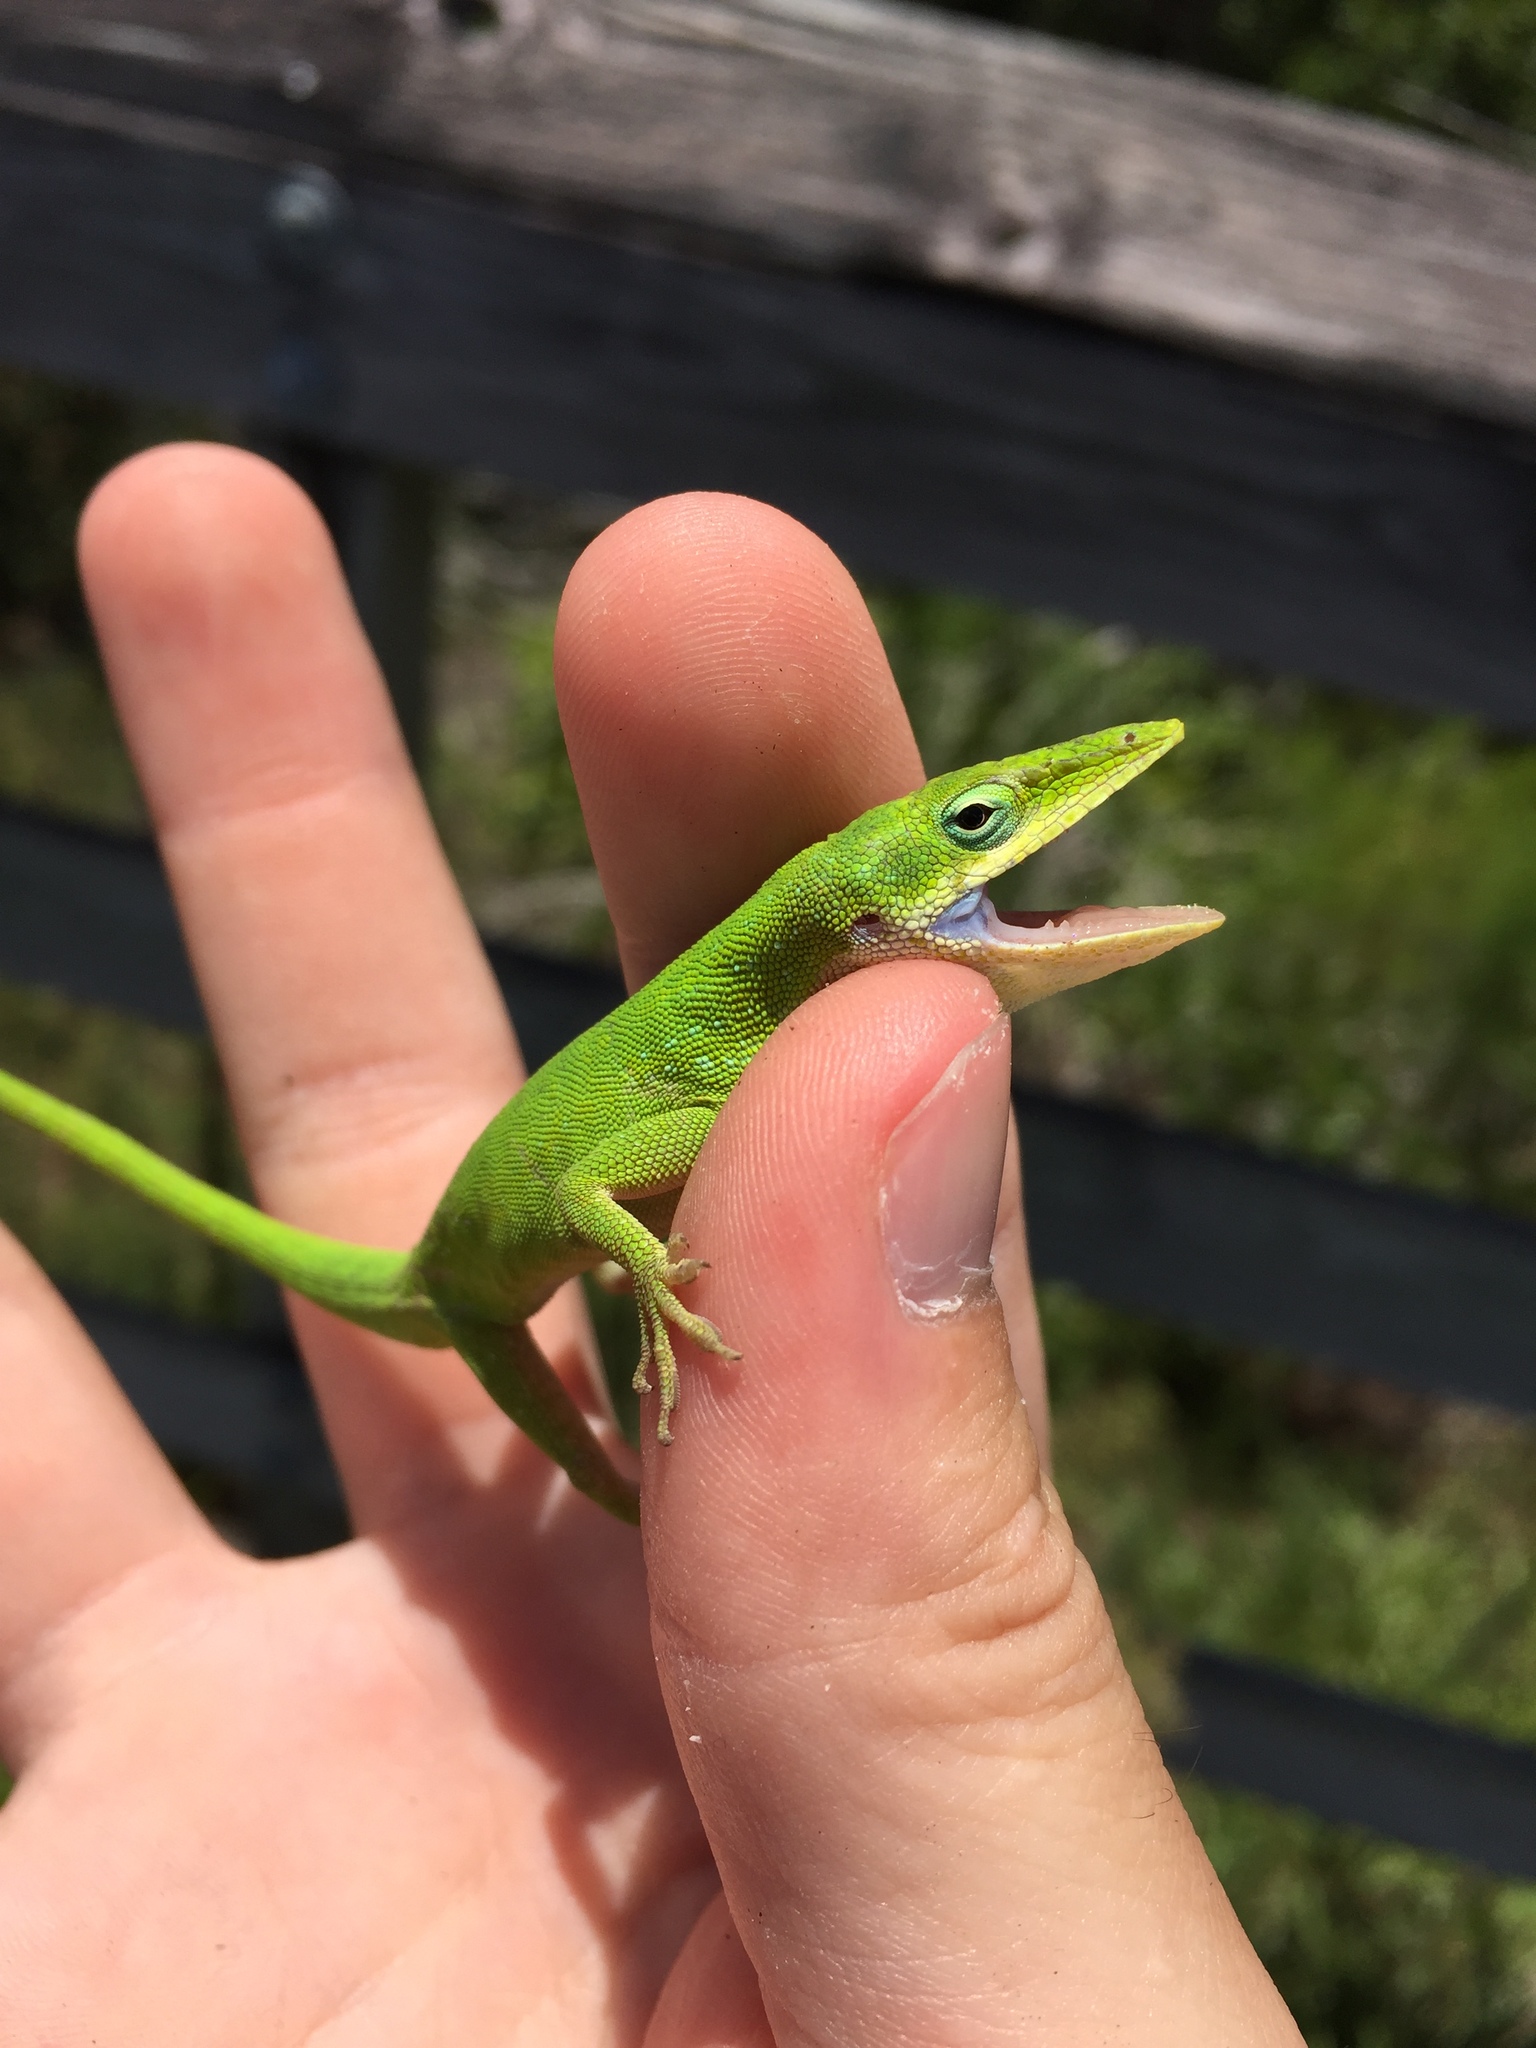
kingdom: Animalia
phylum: Chordata
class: Squamata
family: Dactyloidae
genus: Anolis
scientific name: Anolis carolinensis
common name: Green anole
